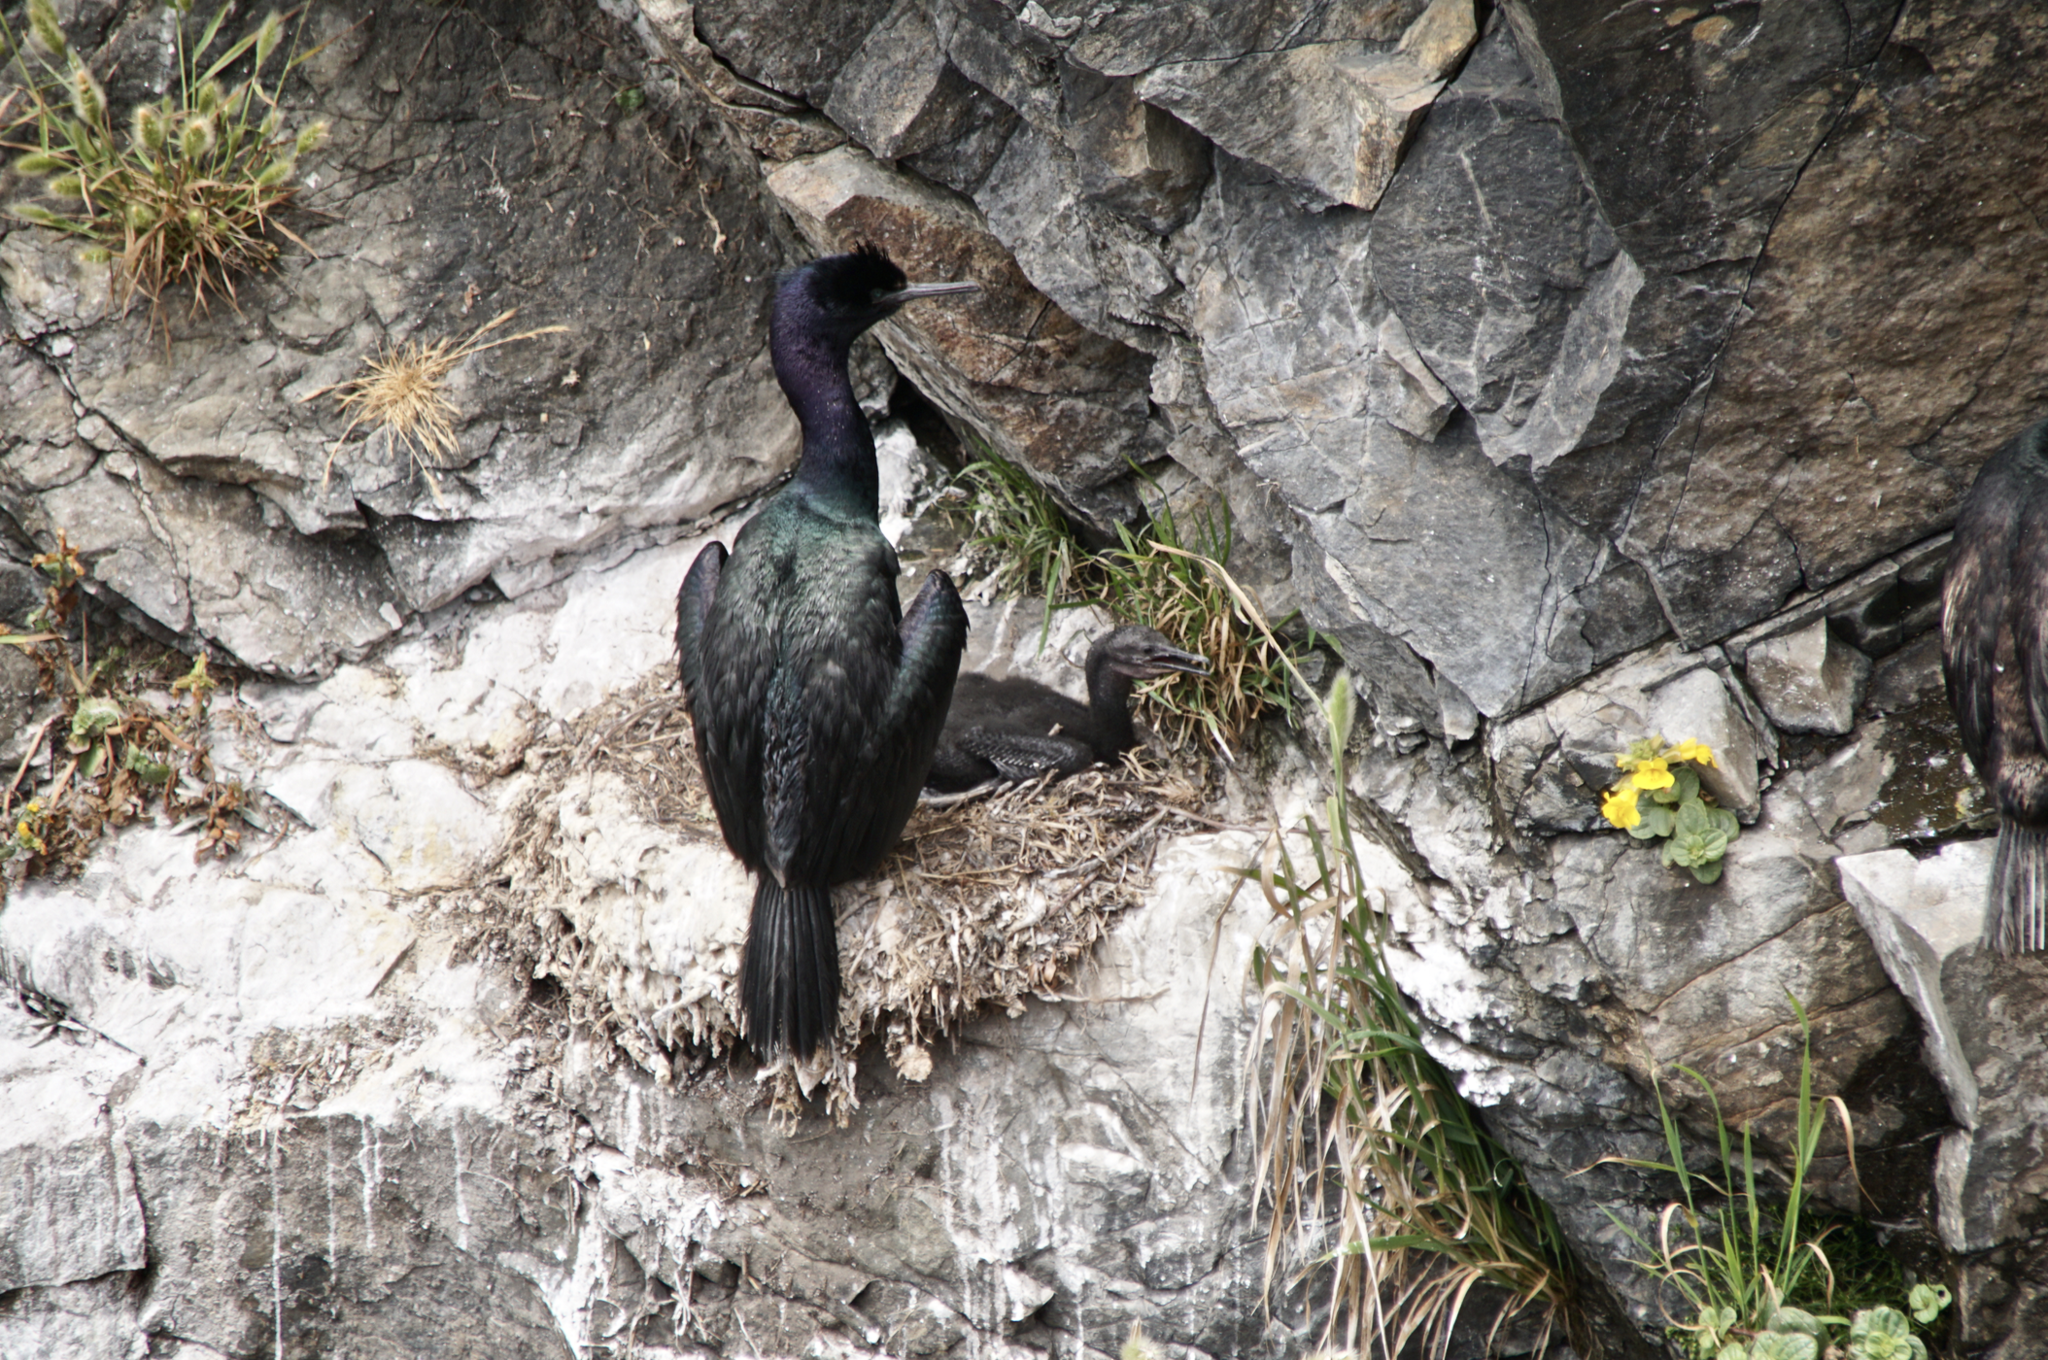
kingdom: Animalia
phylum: Chordata
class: Aves
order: Suliformes
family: Phalacrocoracidae
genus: Phalacrocorax
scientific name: Phalacrocorax pelagicus
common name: Pelagic cormorant
